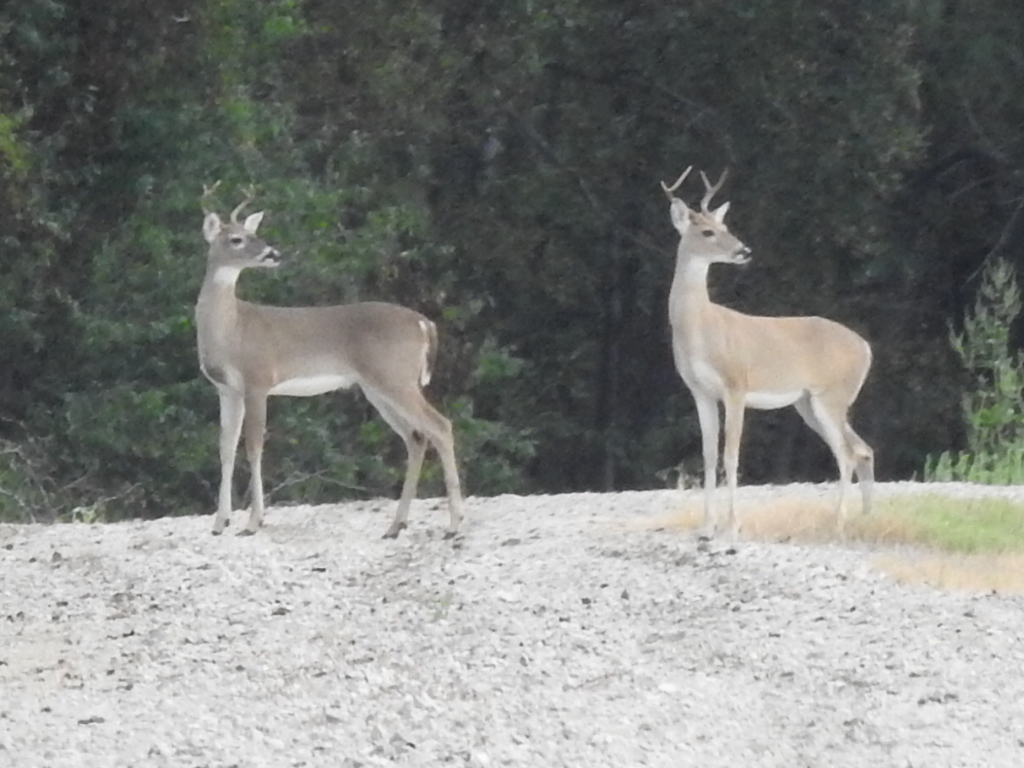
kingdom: Animalia
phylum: Chordata
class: Mammalia
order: Artiodactyla
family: Cervidae
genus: Odocoileus
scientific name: Odocoileus virginianus
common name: White-tailed deer
